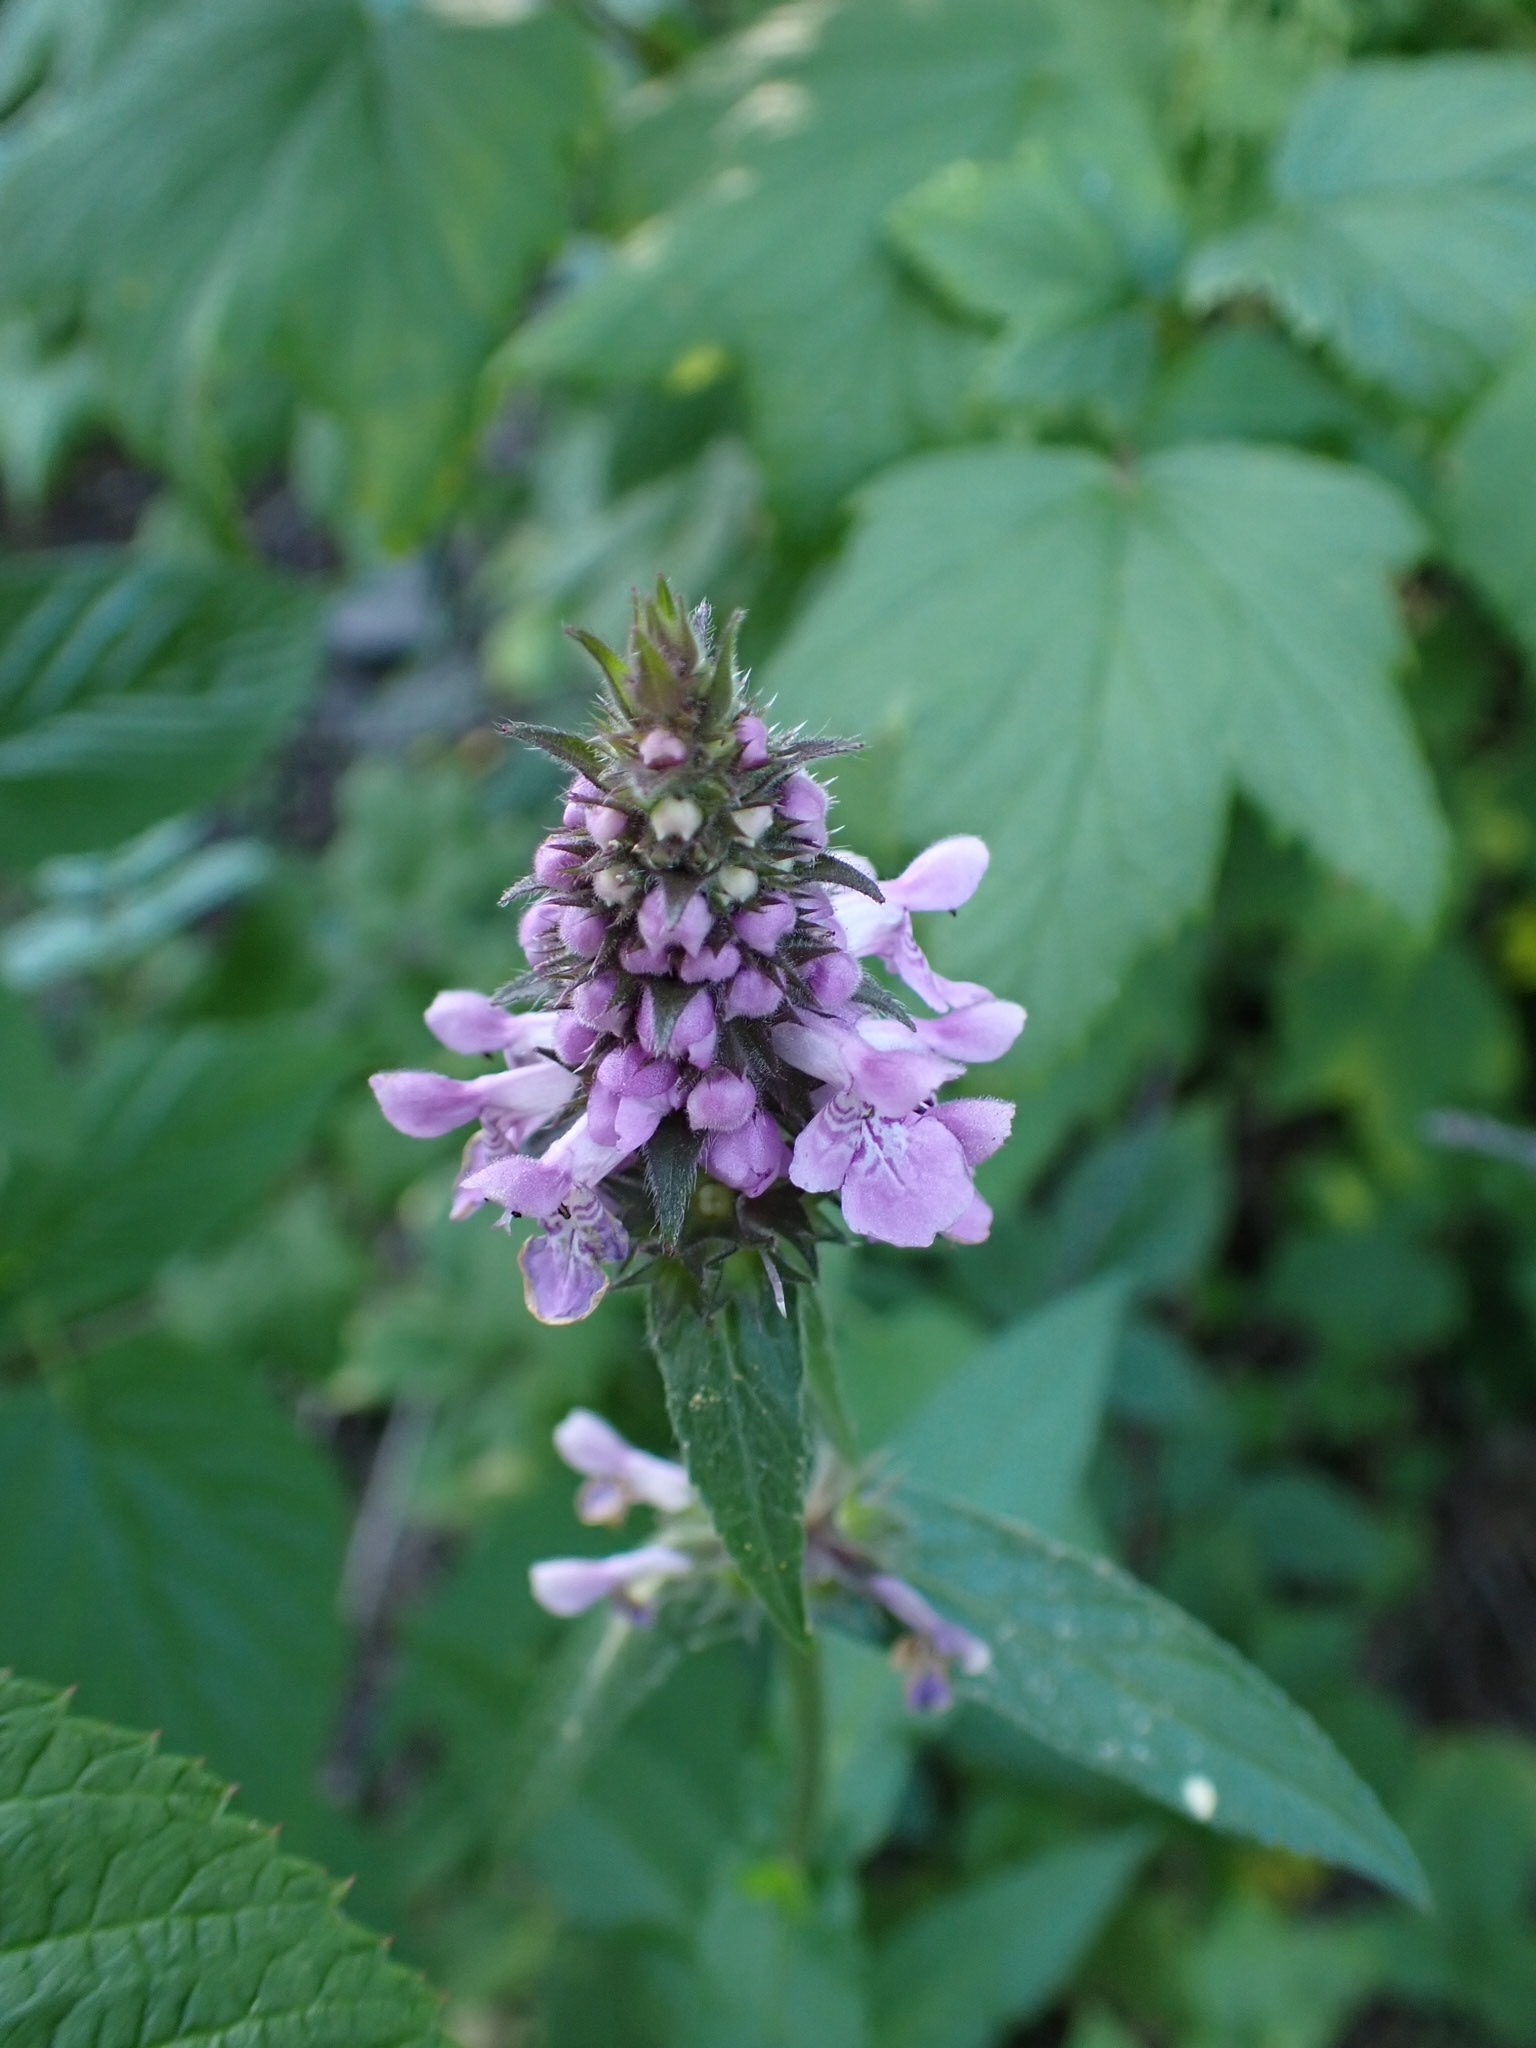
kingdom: Plantae
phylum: Tracheophyta
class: Magnoliopsida
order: Lamiales
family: Lamiaceae
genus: Stachys
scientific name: Stachys palustris
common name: Marsh woundwort
